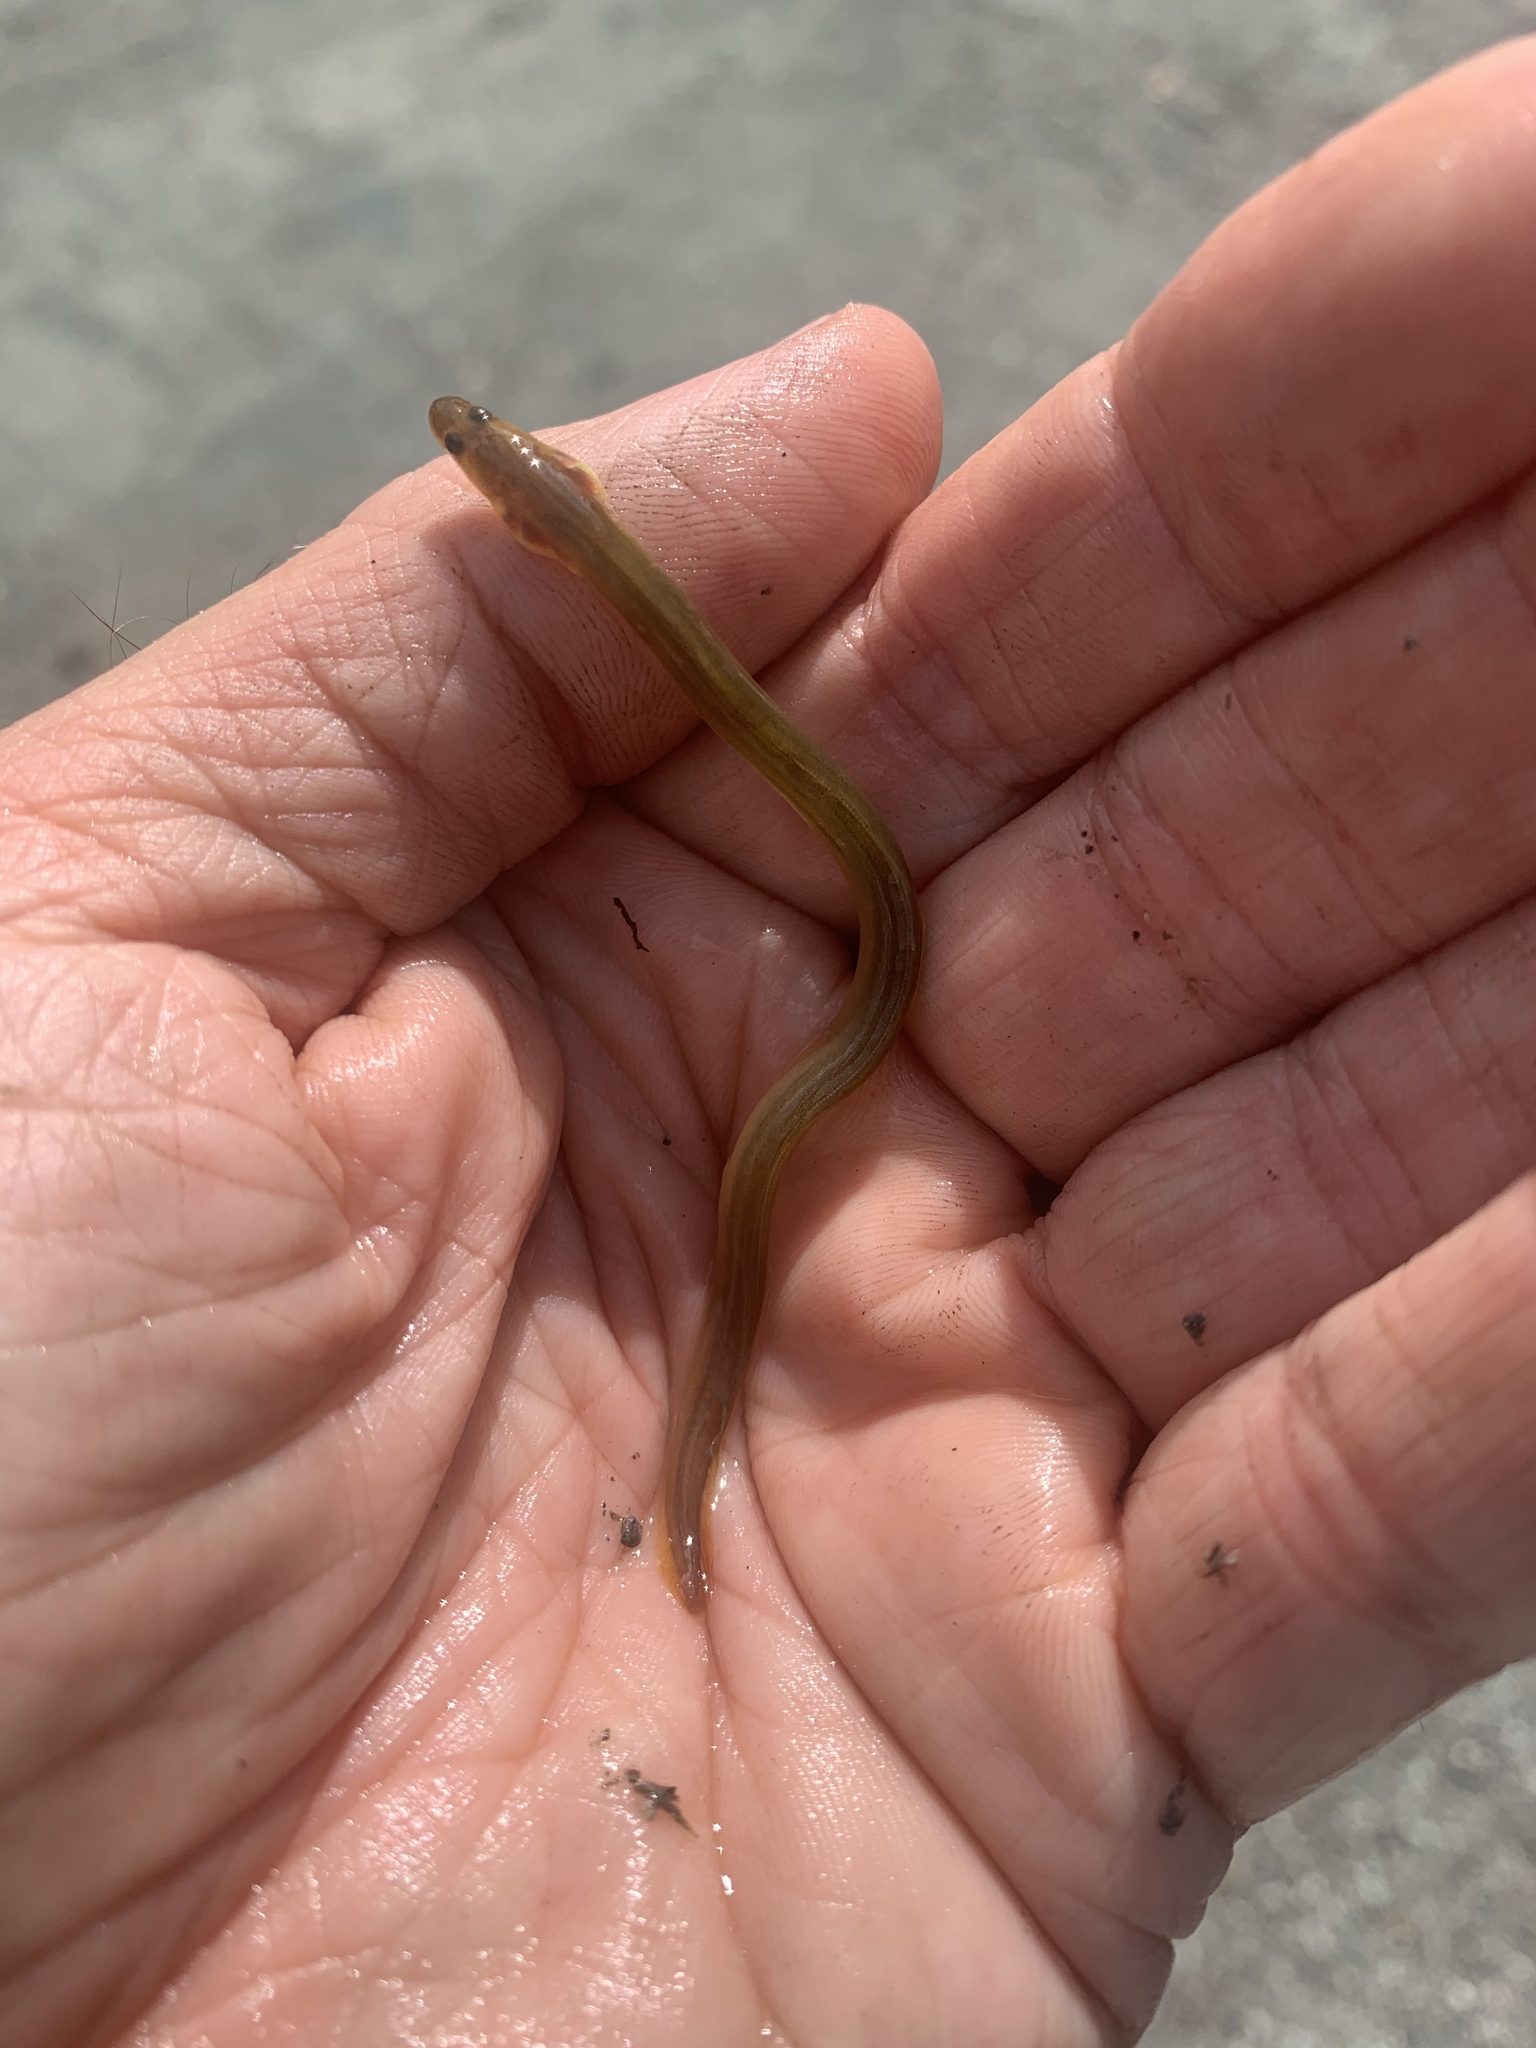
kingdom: Animalia
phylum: Chordata
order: Anguilliformes
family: Anguillidae
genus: Anguilla
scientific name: Anguilla rostrata
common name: American eel
